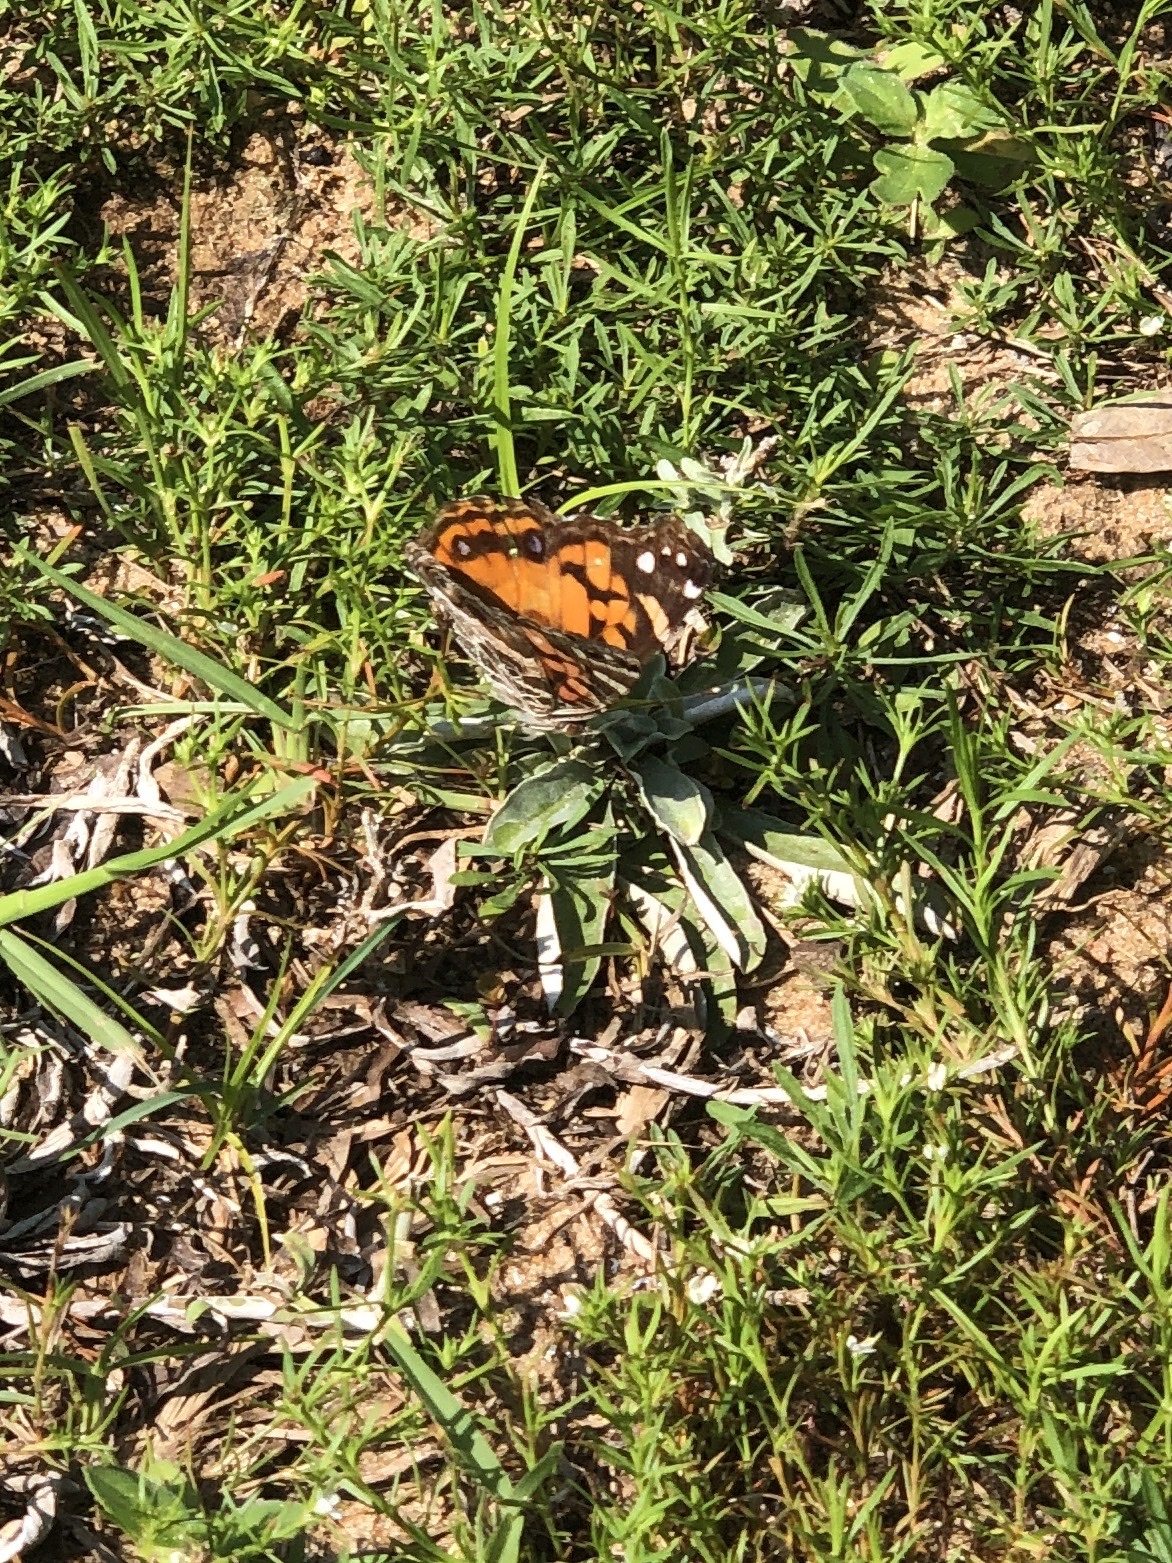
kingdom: Animalia
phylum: Arthropoda
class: Insecta
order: Lepidoptera
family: Nymphalidae
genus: Vanessa
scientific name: Vanessa virginiensis
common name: American lady
